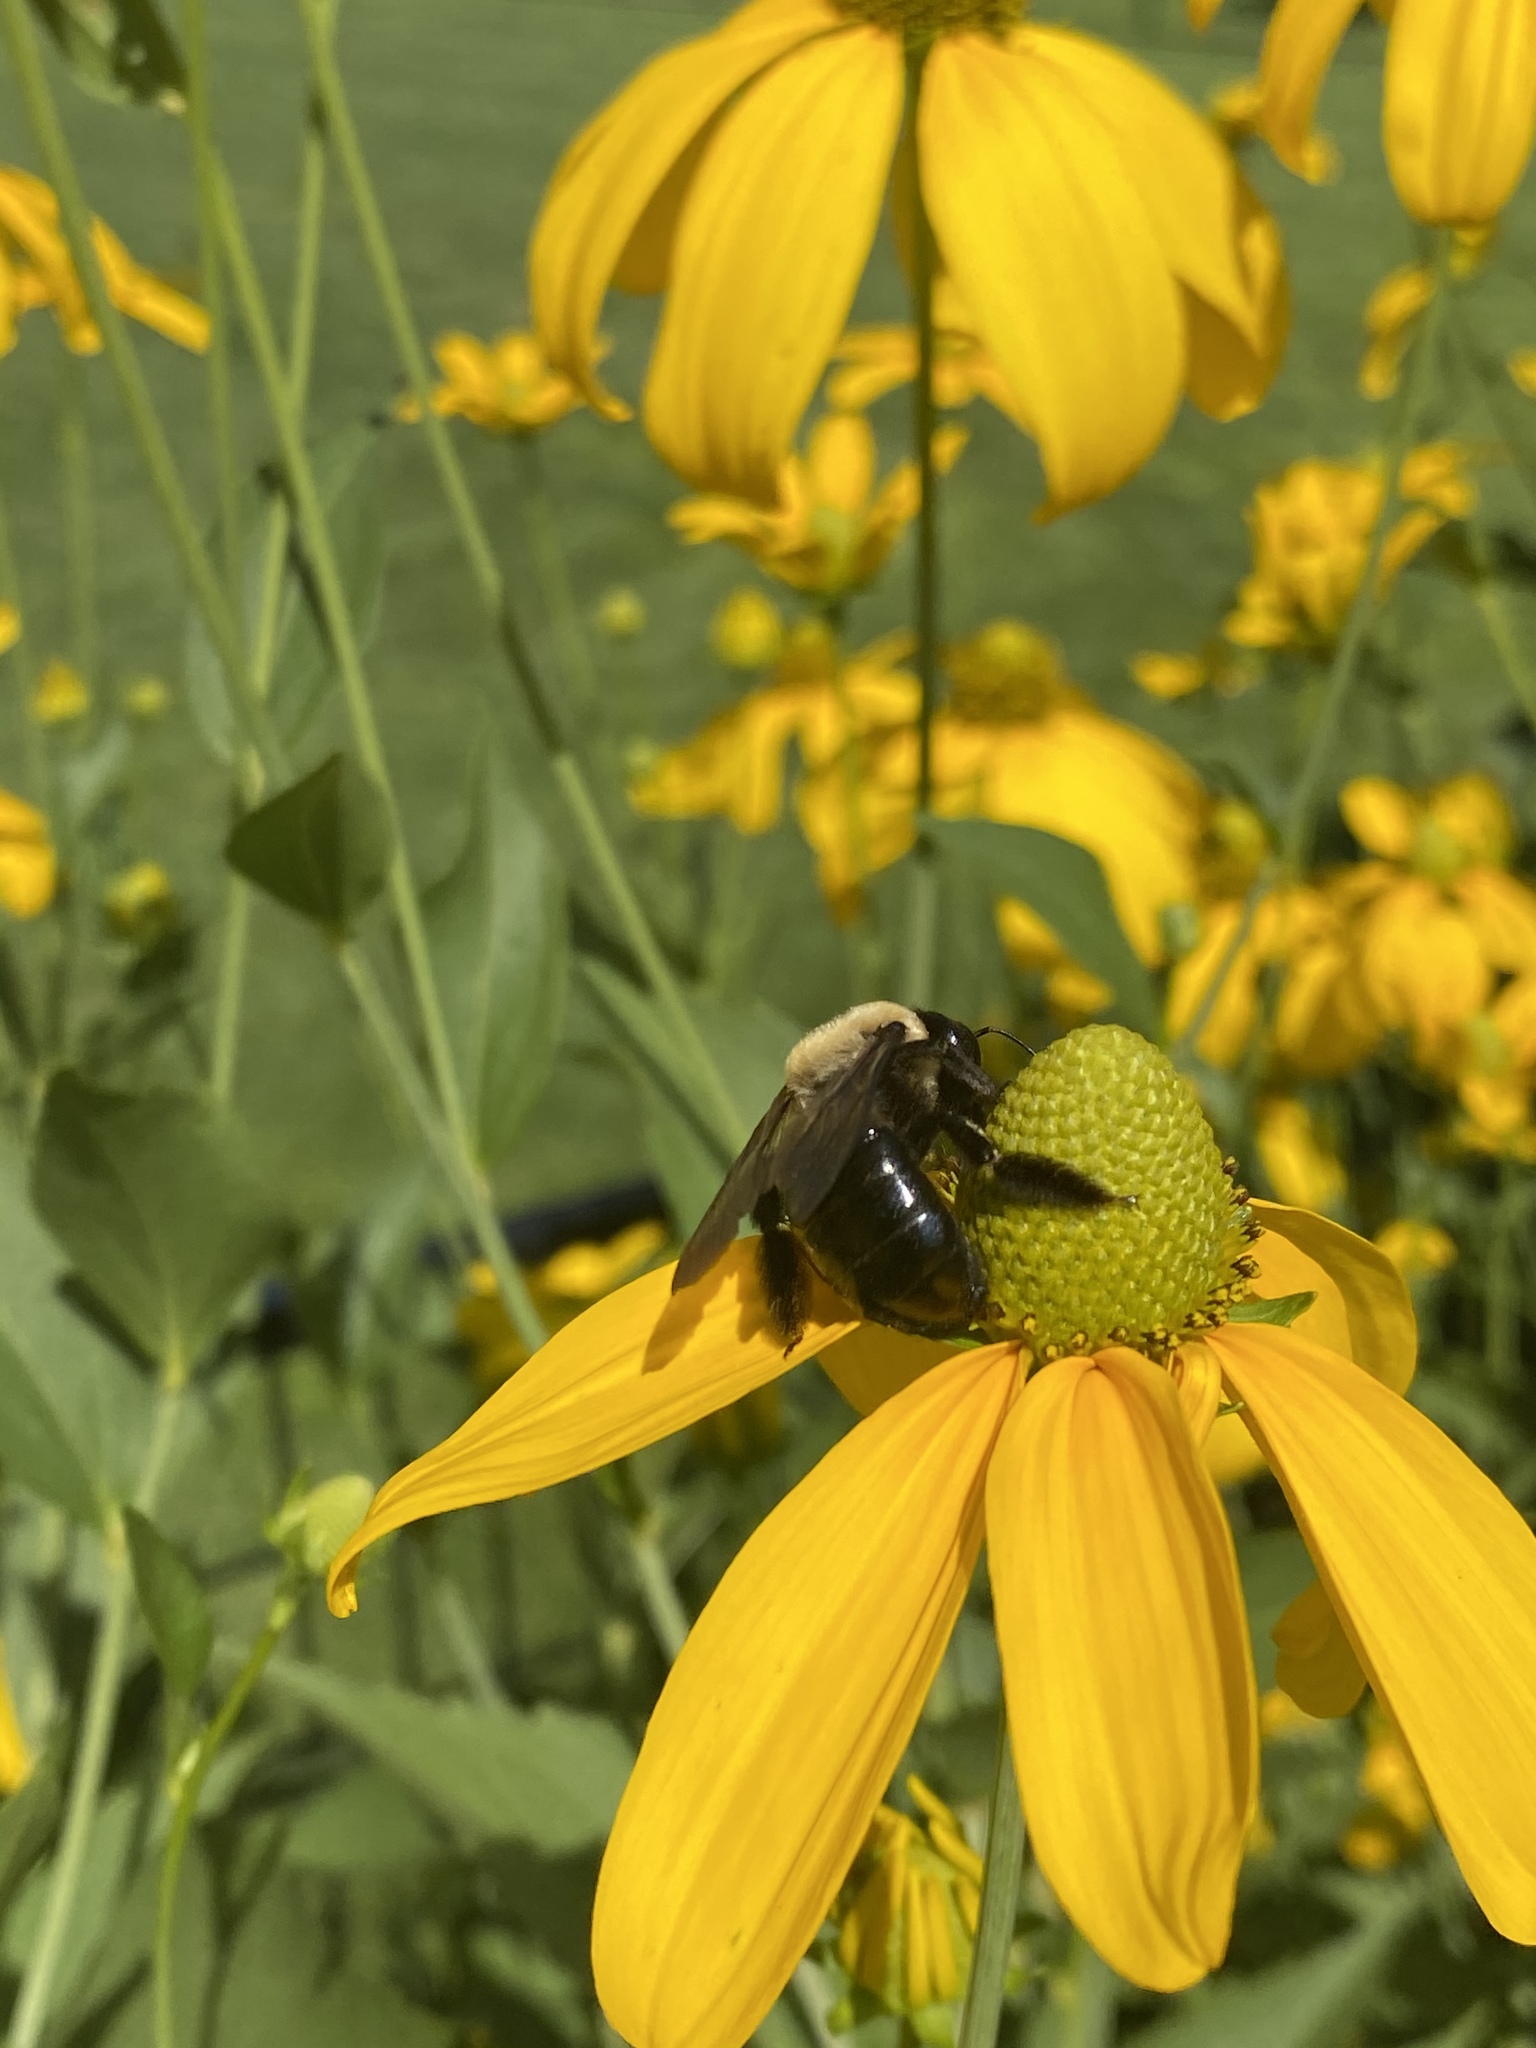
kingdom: Animalia
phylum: Arthropoda
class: Insecta
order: Hymenoptera
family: Apidae
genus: Xylocopa
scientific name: Xylocopa virginica
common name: Carpenter bee
